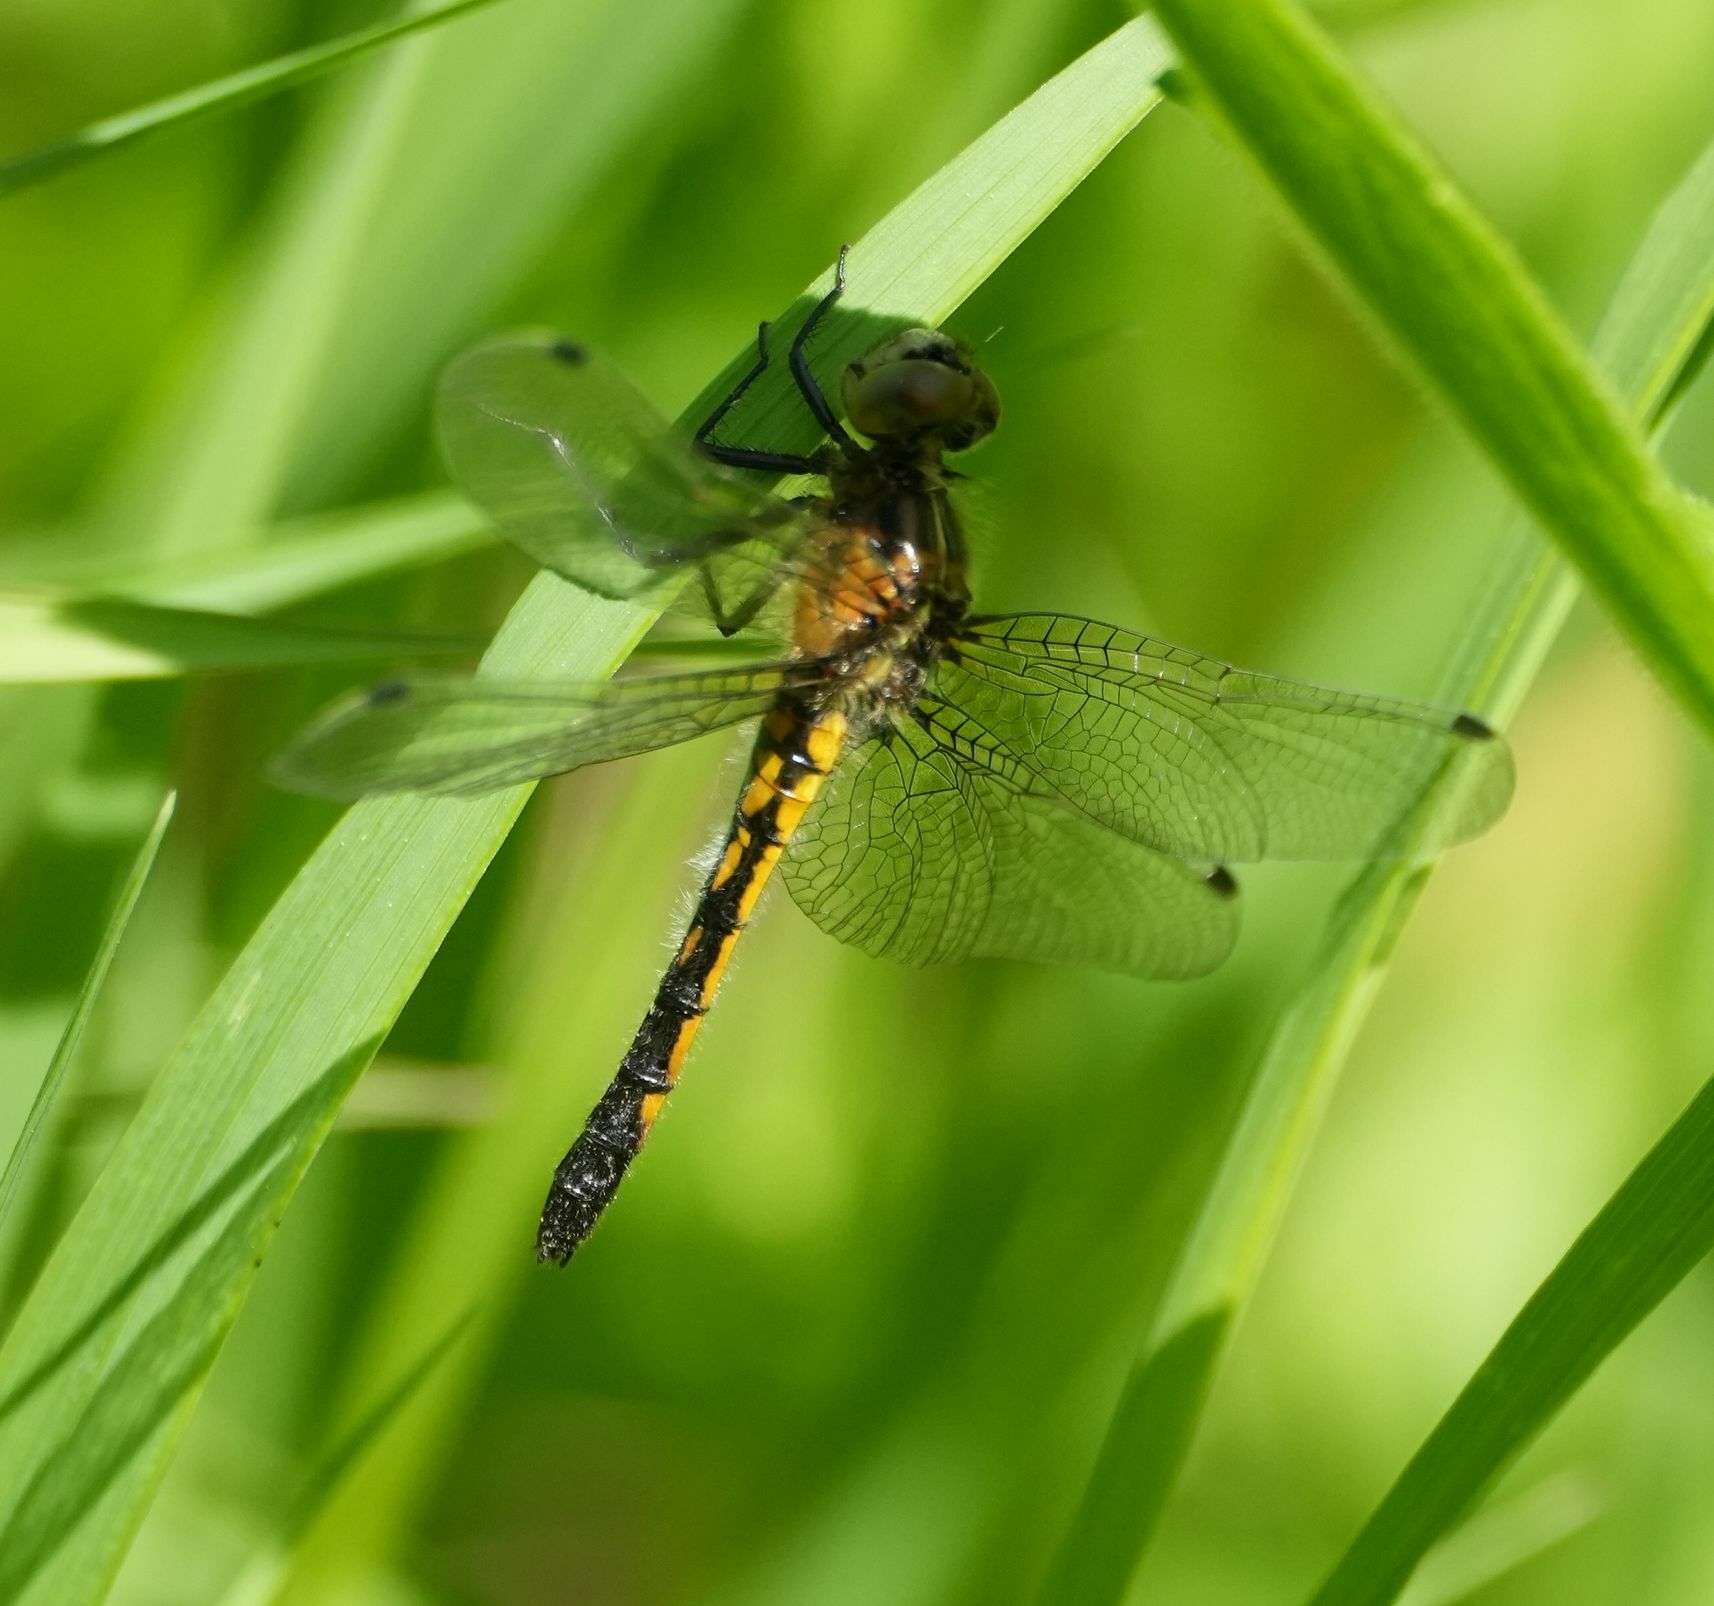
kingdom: Animalia
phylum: Arthropoda
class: Insecta
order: Odonata
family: Libellulidae
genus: Leucorrhinia
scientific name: Leucorrhinia intacta
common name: Dot-tailed whiteface
